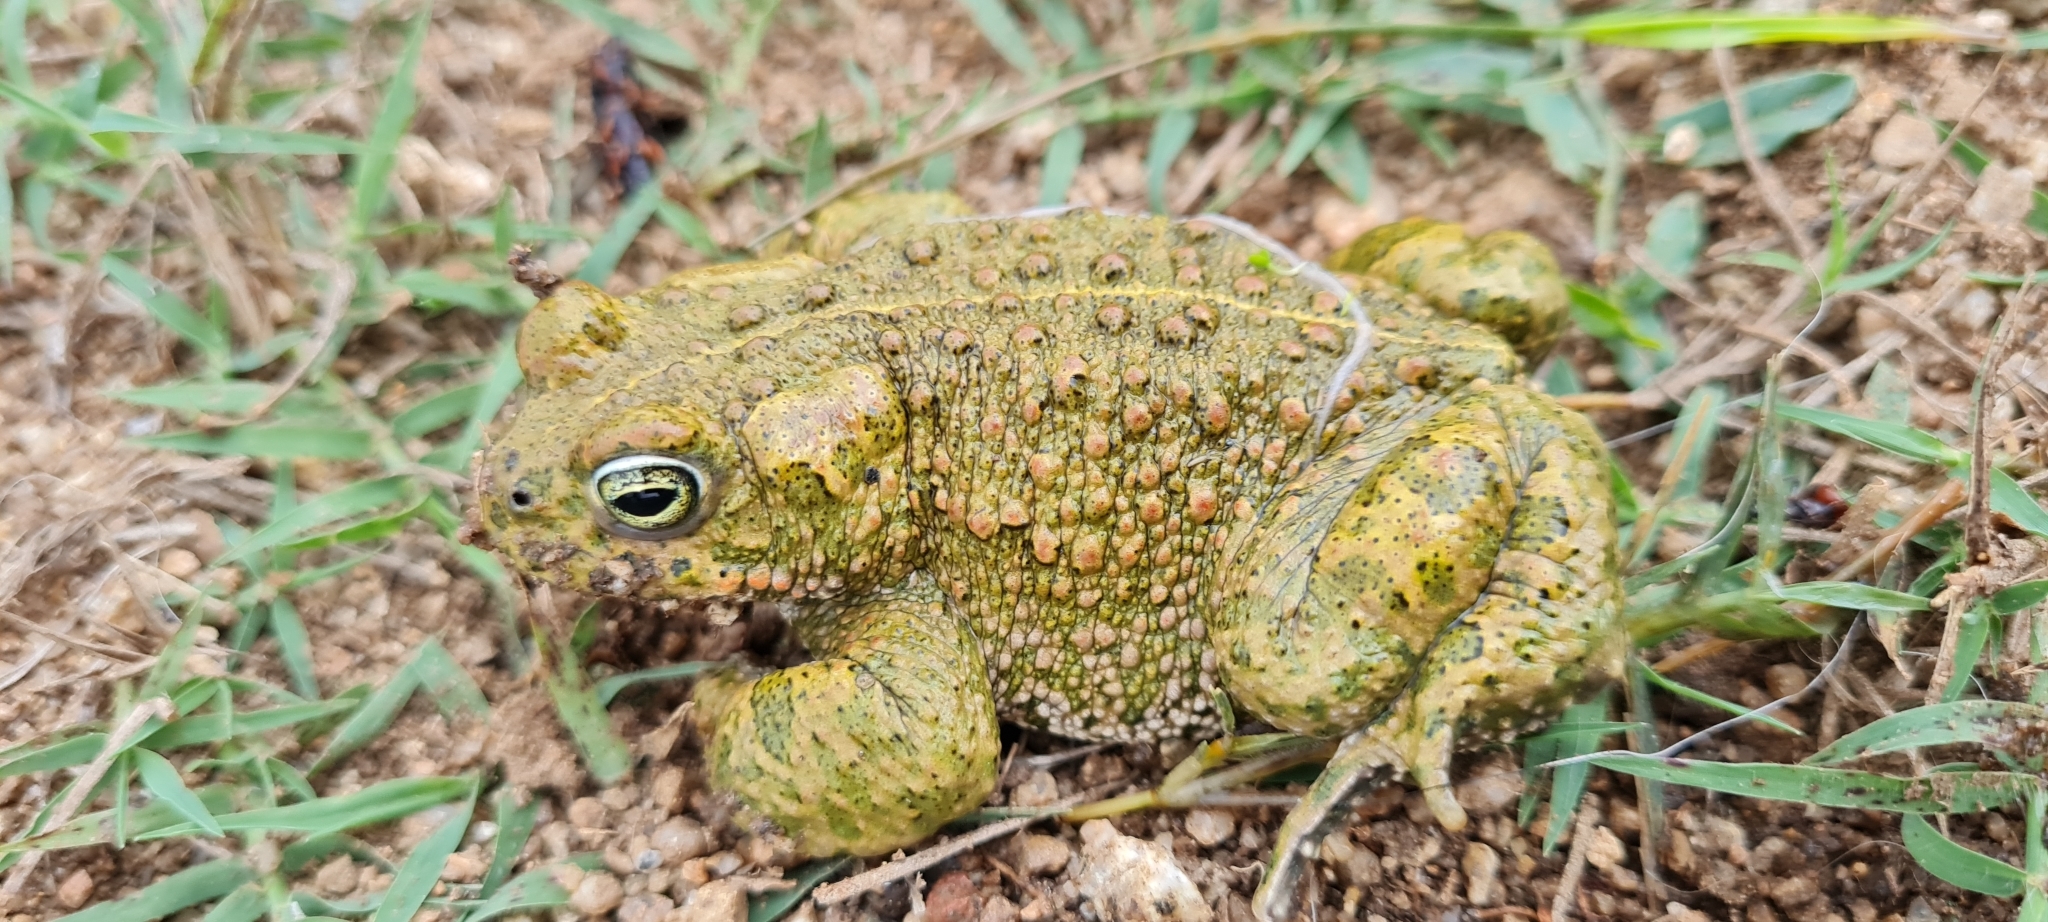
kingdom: Animalia
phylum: Chordata
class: Amphibia
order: Anura
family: Bufonidae
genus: Epidalea
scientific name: Epidalea calamita
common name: Natterjack toad
